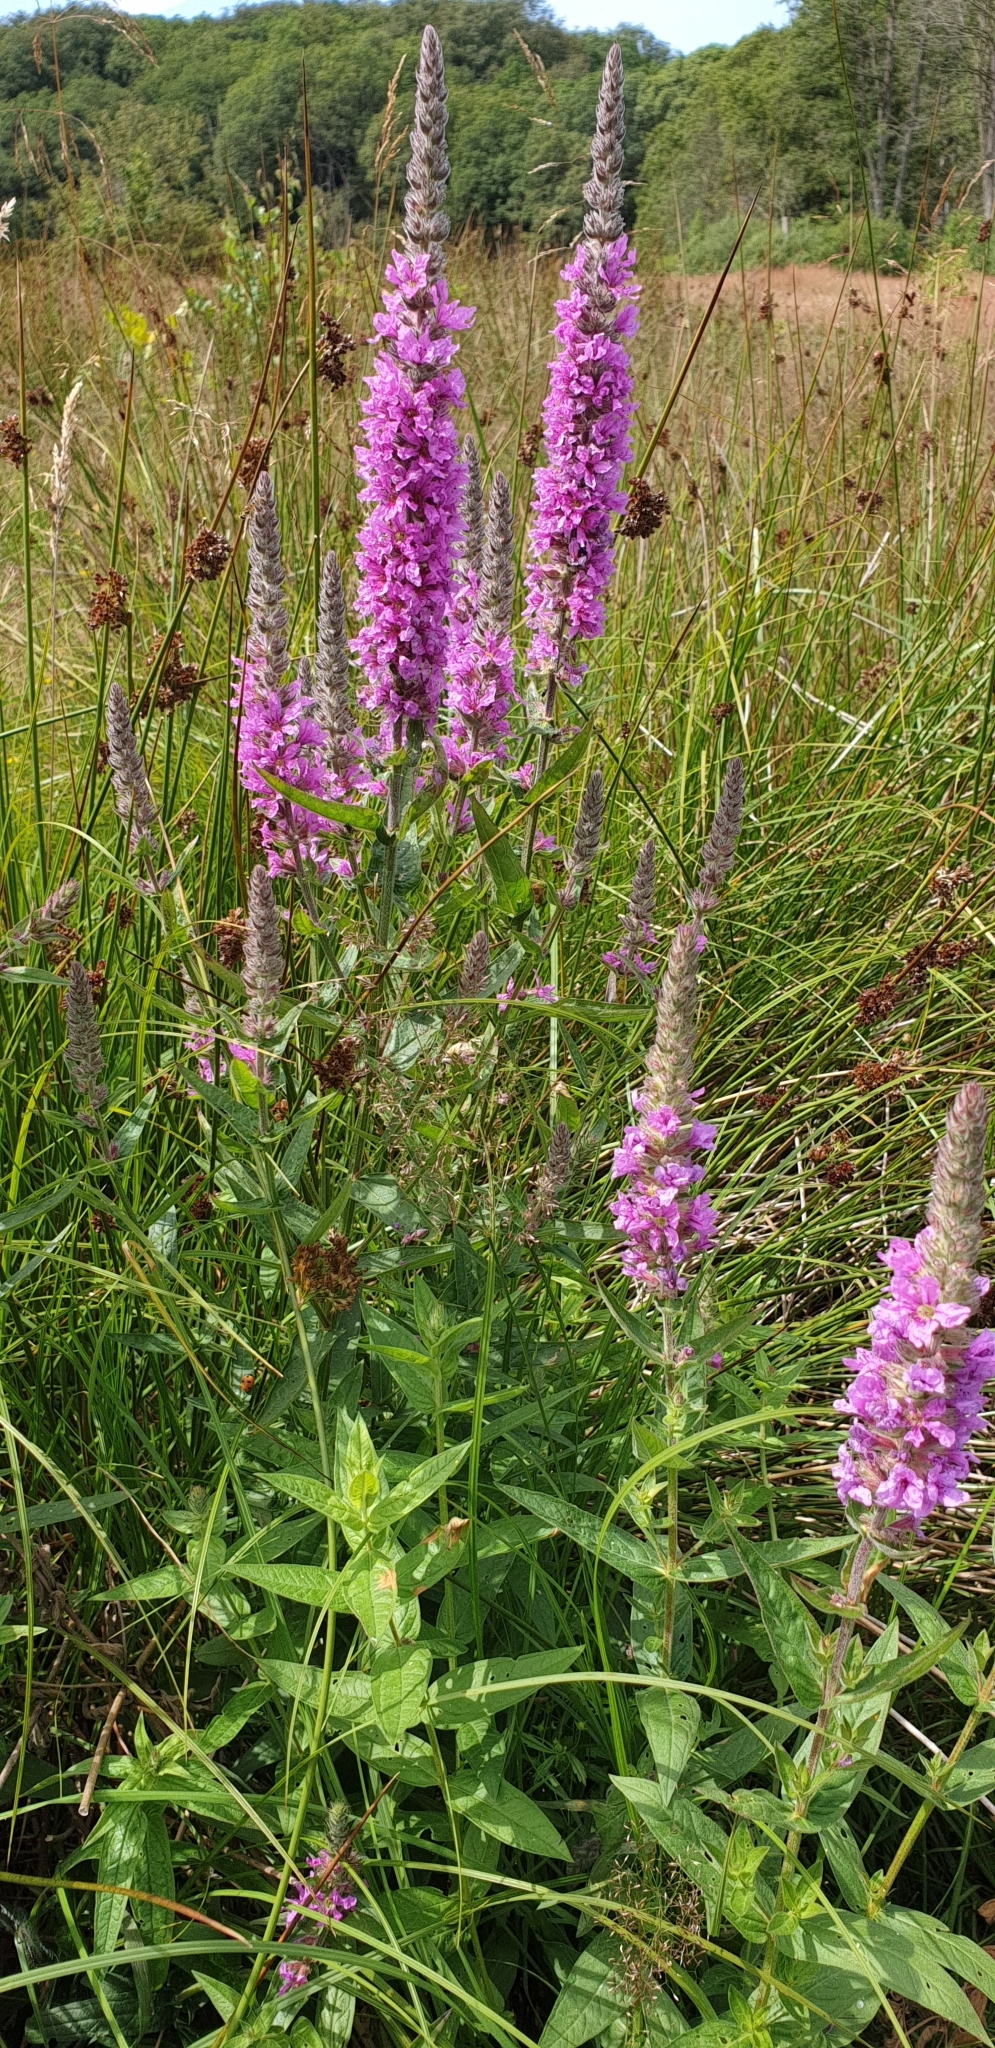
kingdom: Plantae
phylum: Tracheophyta
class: Magnoliopsida
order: Myrtales
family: Lythraceae
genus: Lythrum
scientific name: Lythrum salicaria
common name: Purple loosestrife
